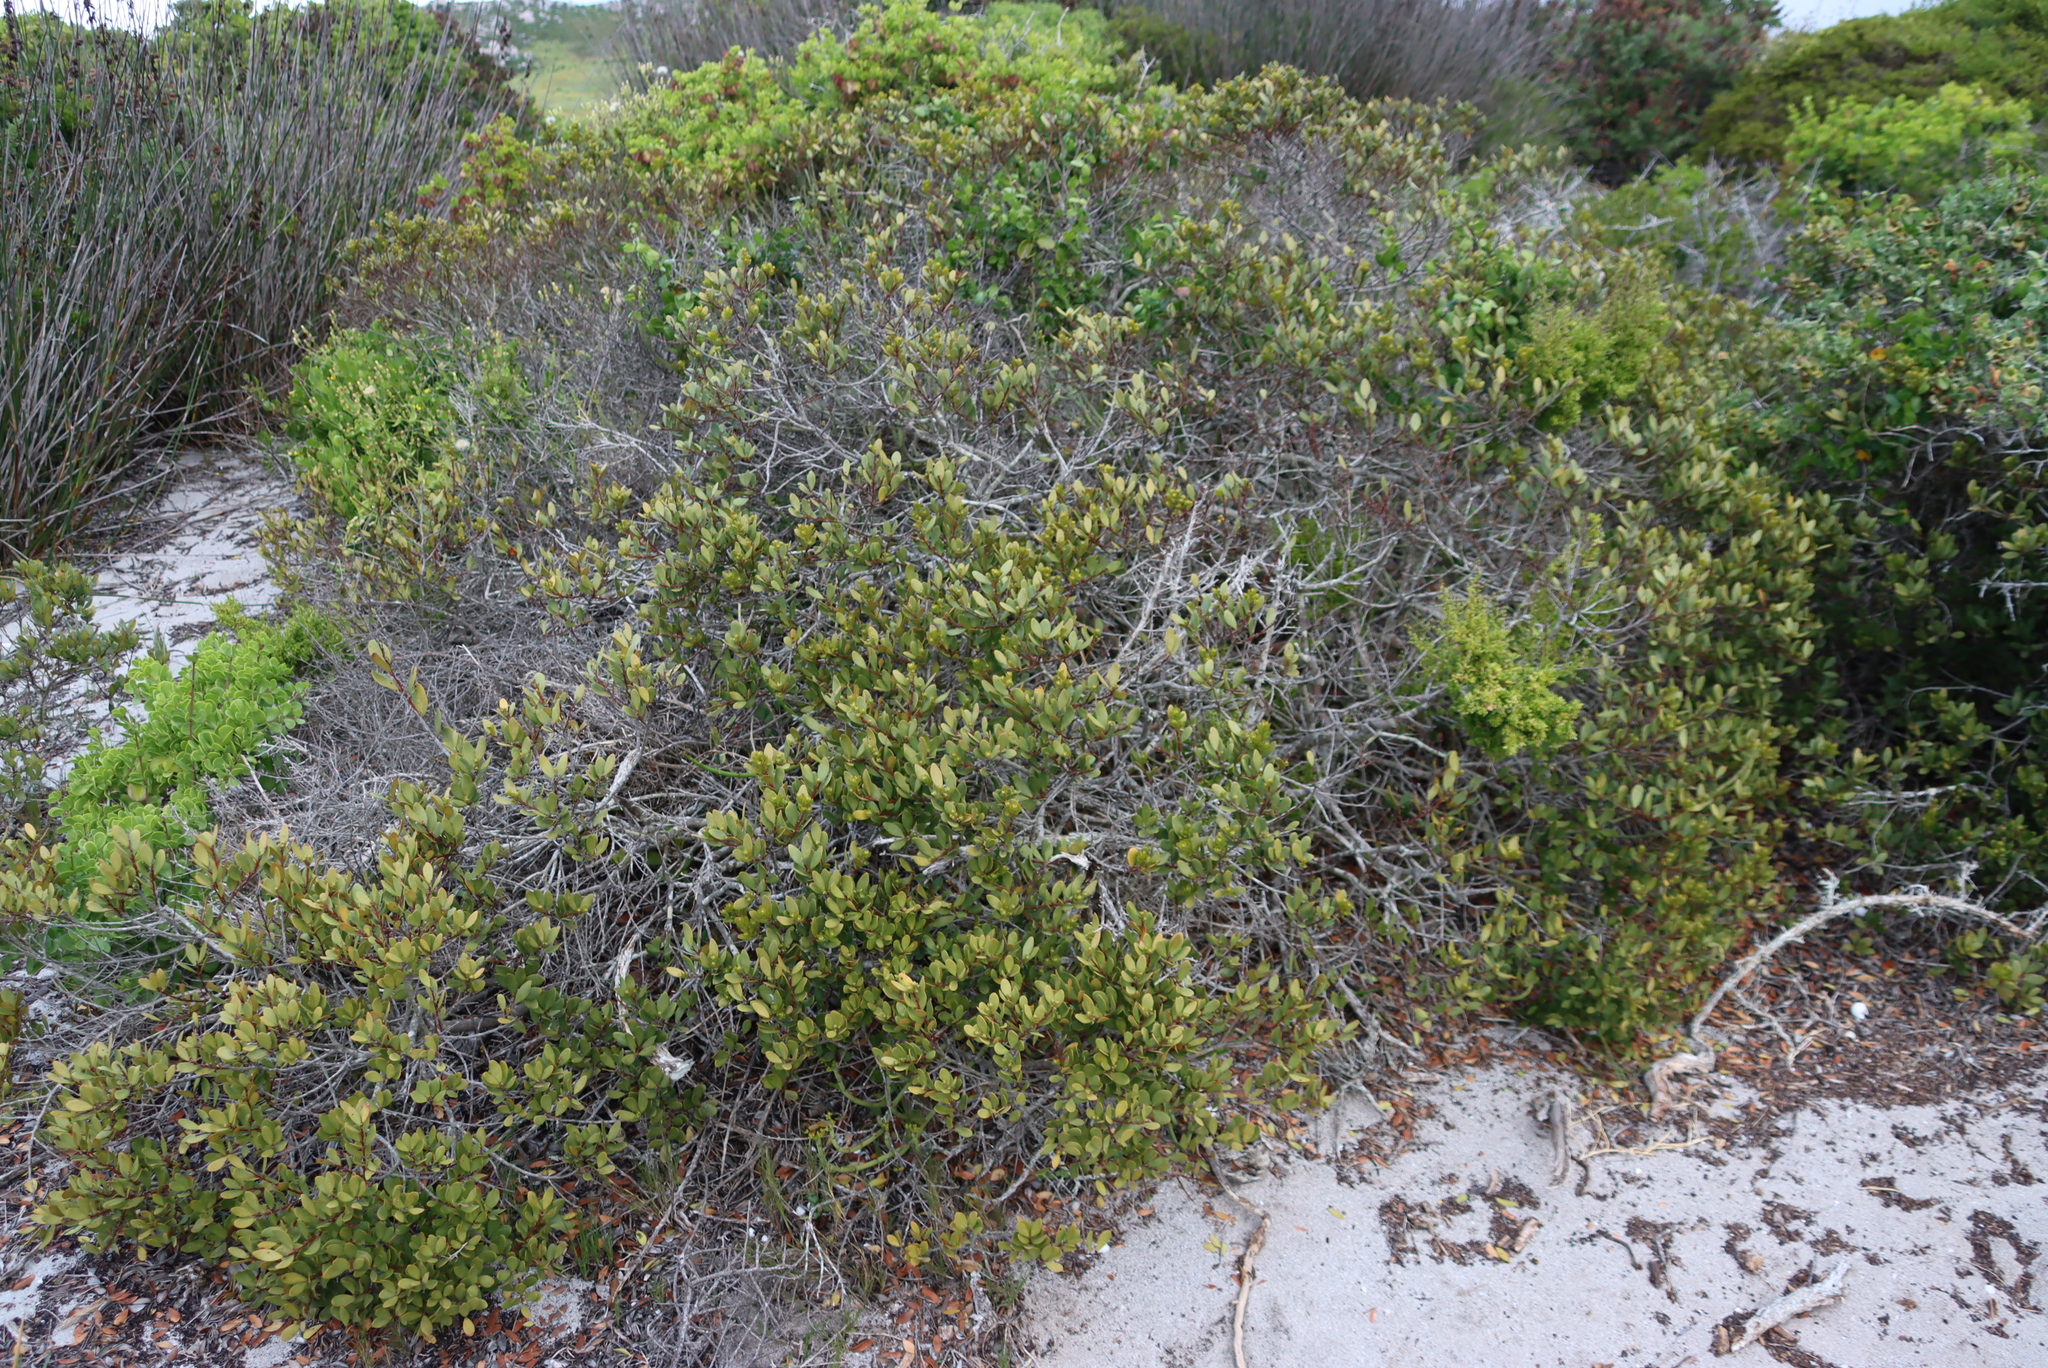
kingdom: Plantae
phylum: Tracheophyta
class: Magnoliopsida
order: Ericales
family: Ebenaceae
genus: Euclea
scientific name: Euclea racemosa
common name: Dune guarri
